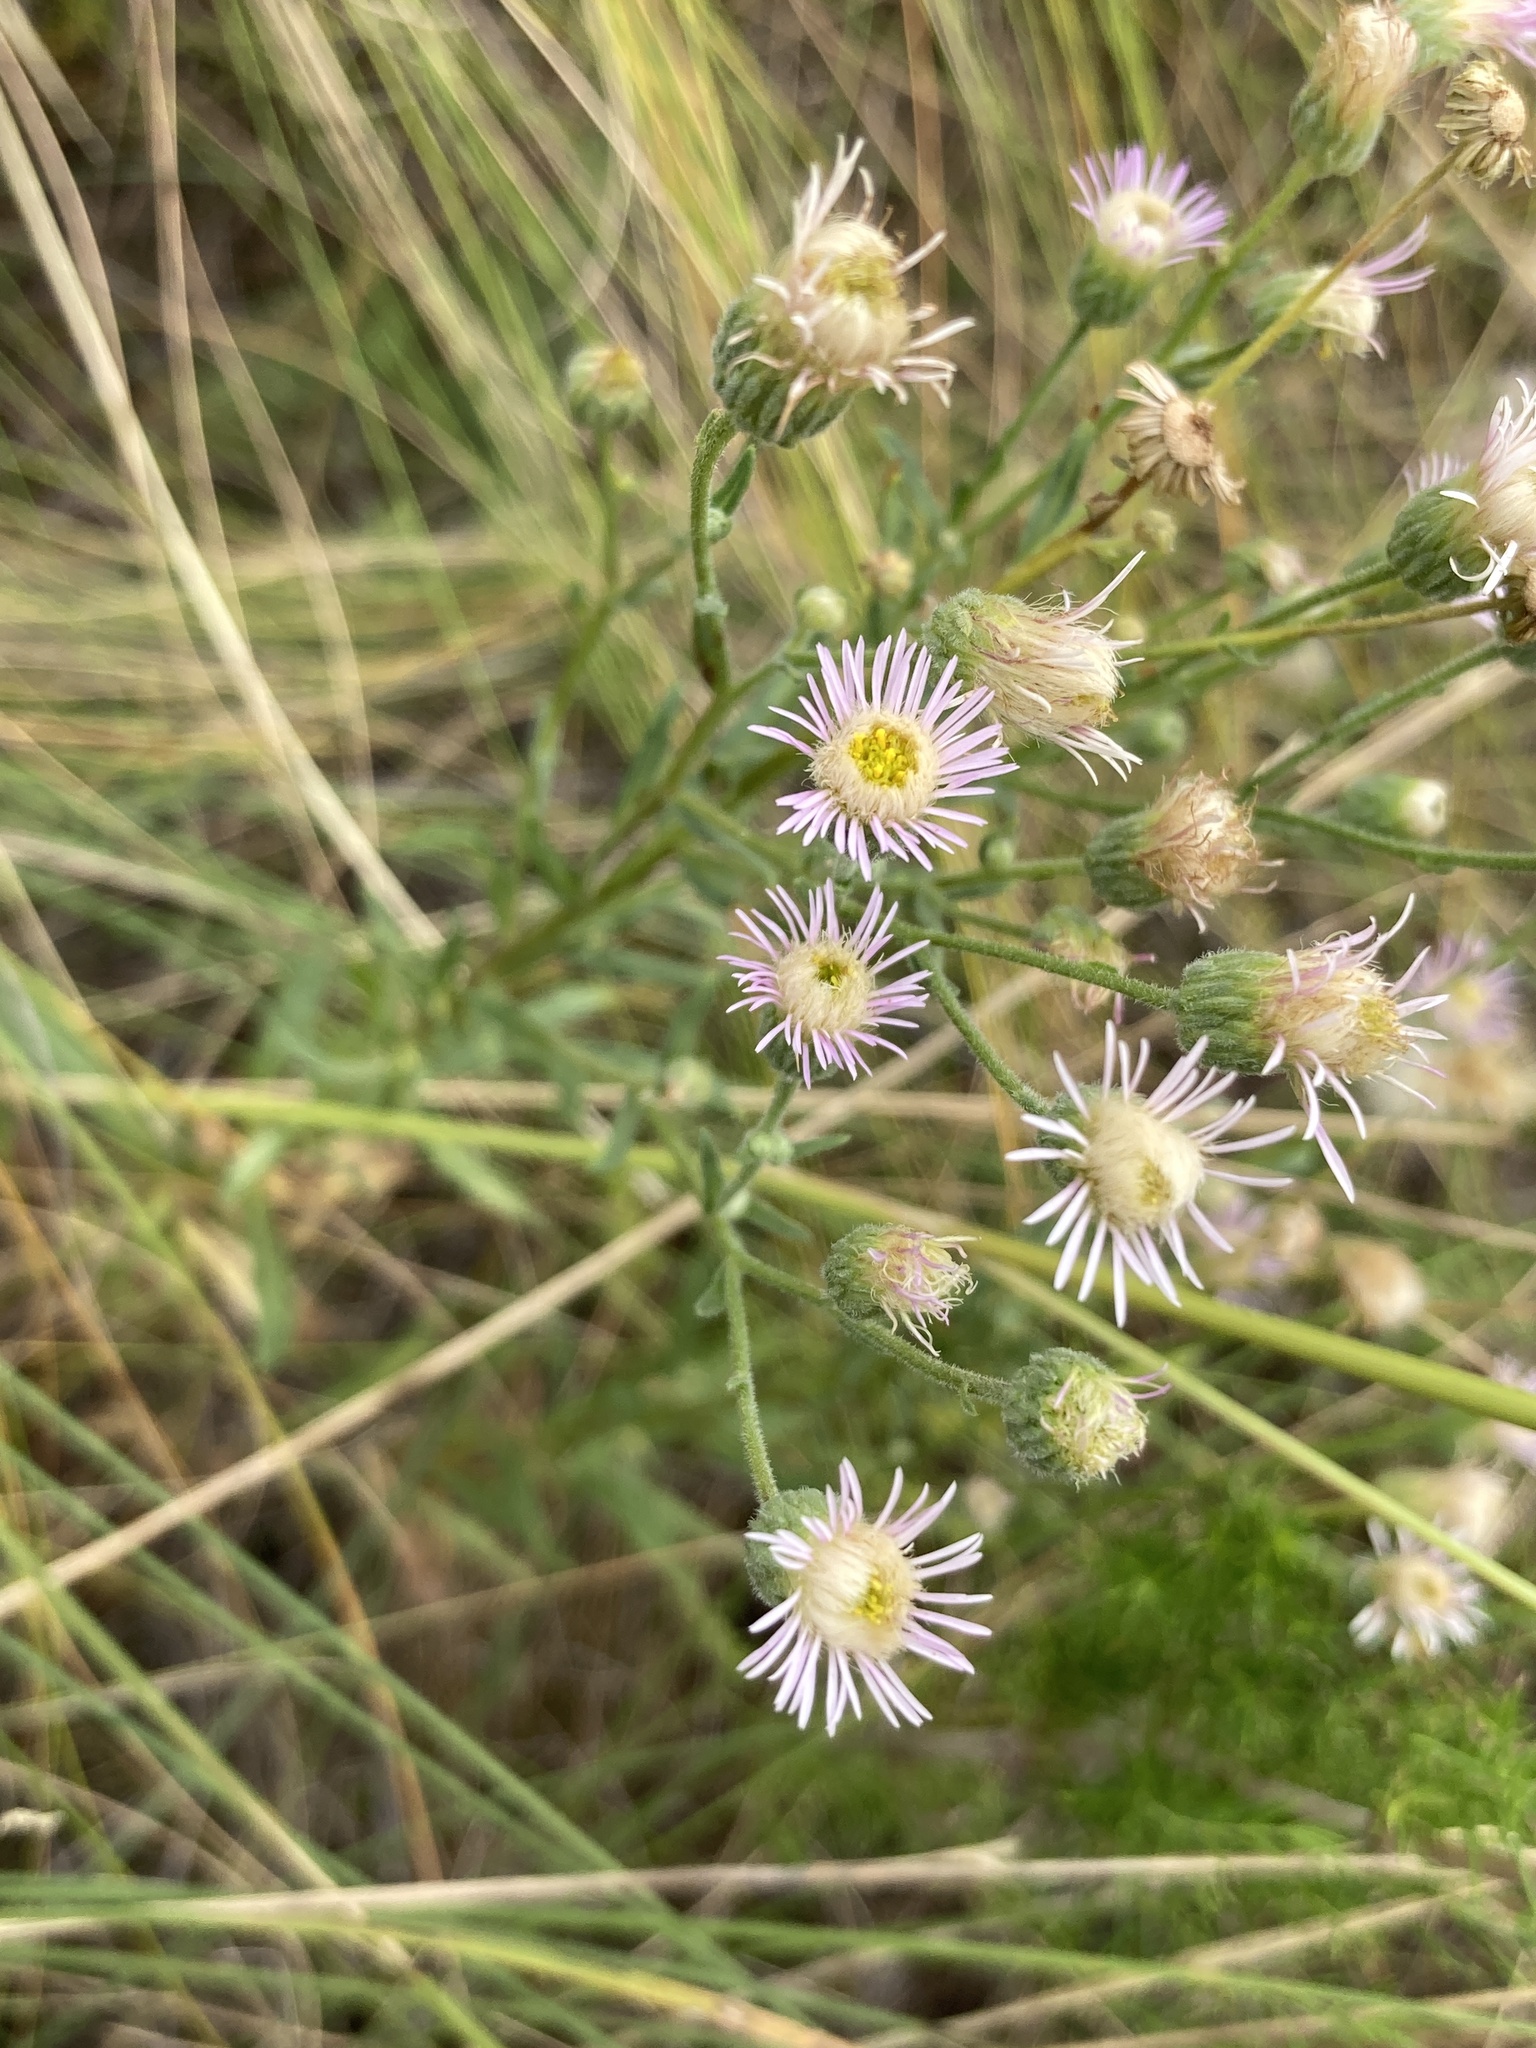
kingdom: Plantae
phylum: Tracheophyta
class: Magnoliopsida
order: Asterales
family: Asteraceae
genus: Erigeron
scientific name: Erigeron acris
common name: Blue fleabane
